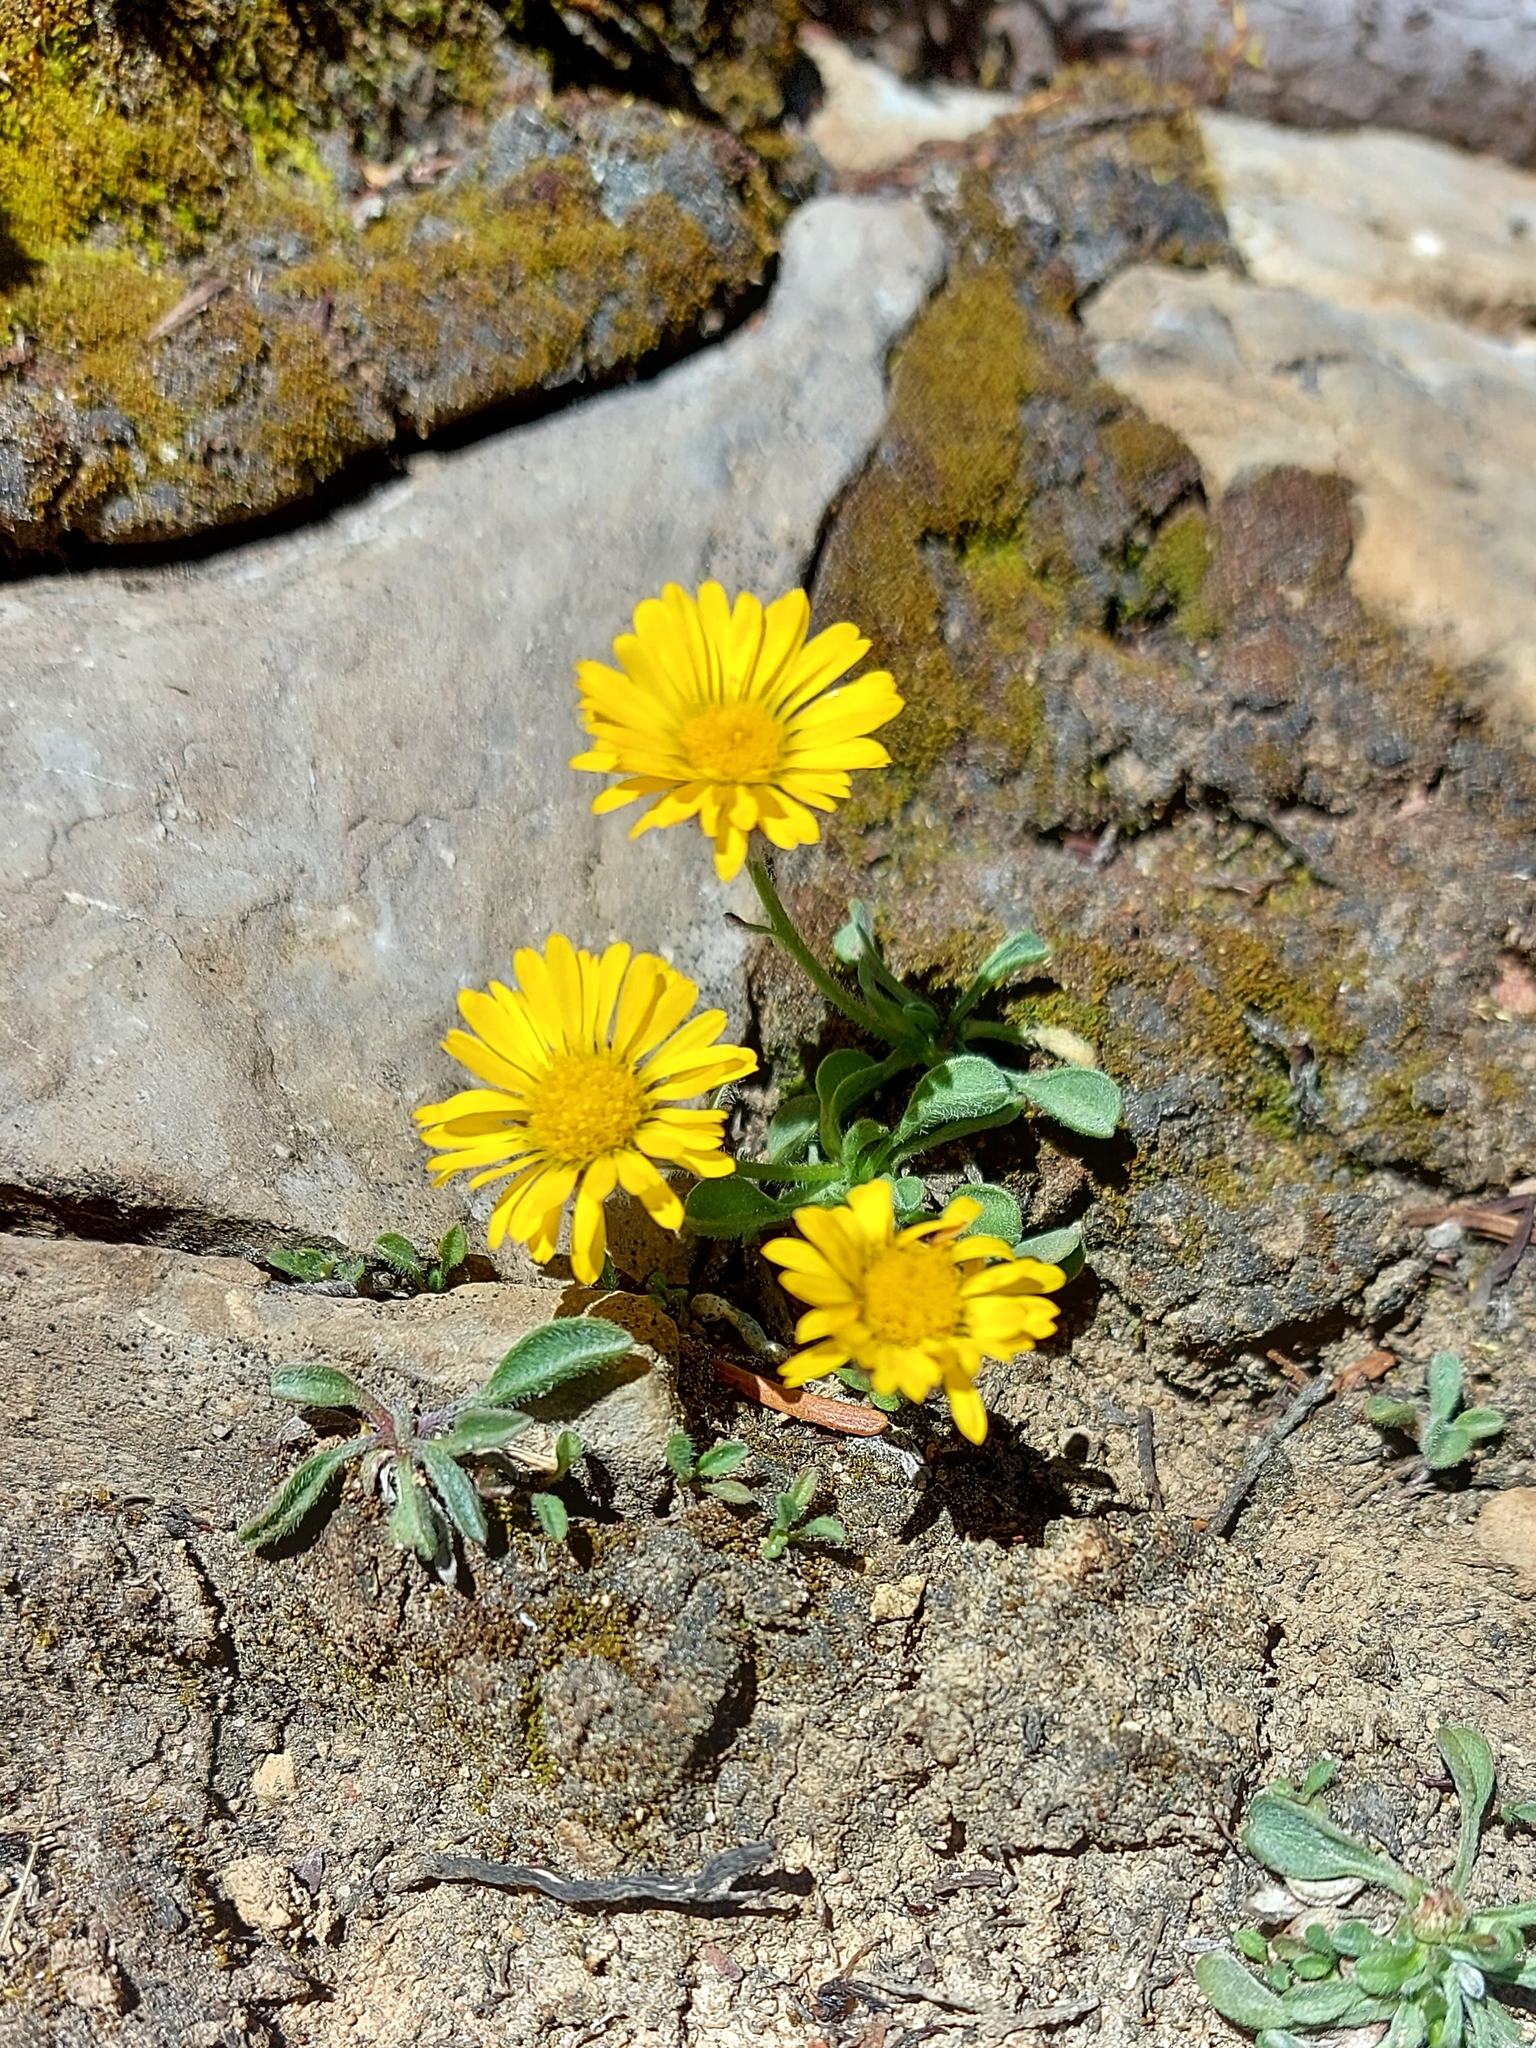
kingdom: Plantae
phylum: Tracheophyta
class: Magnoliopsida
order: Asterales
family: Asteraceae
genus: Erigeron
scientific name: Erigeron aureus
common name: Alpine yellow fleabane
